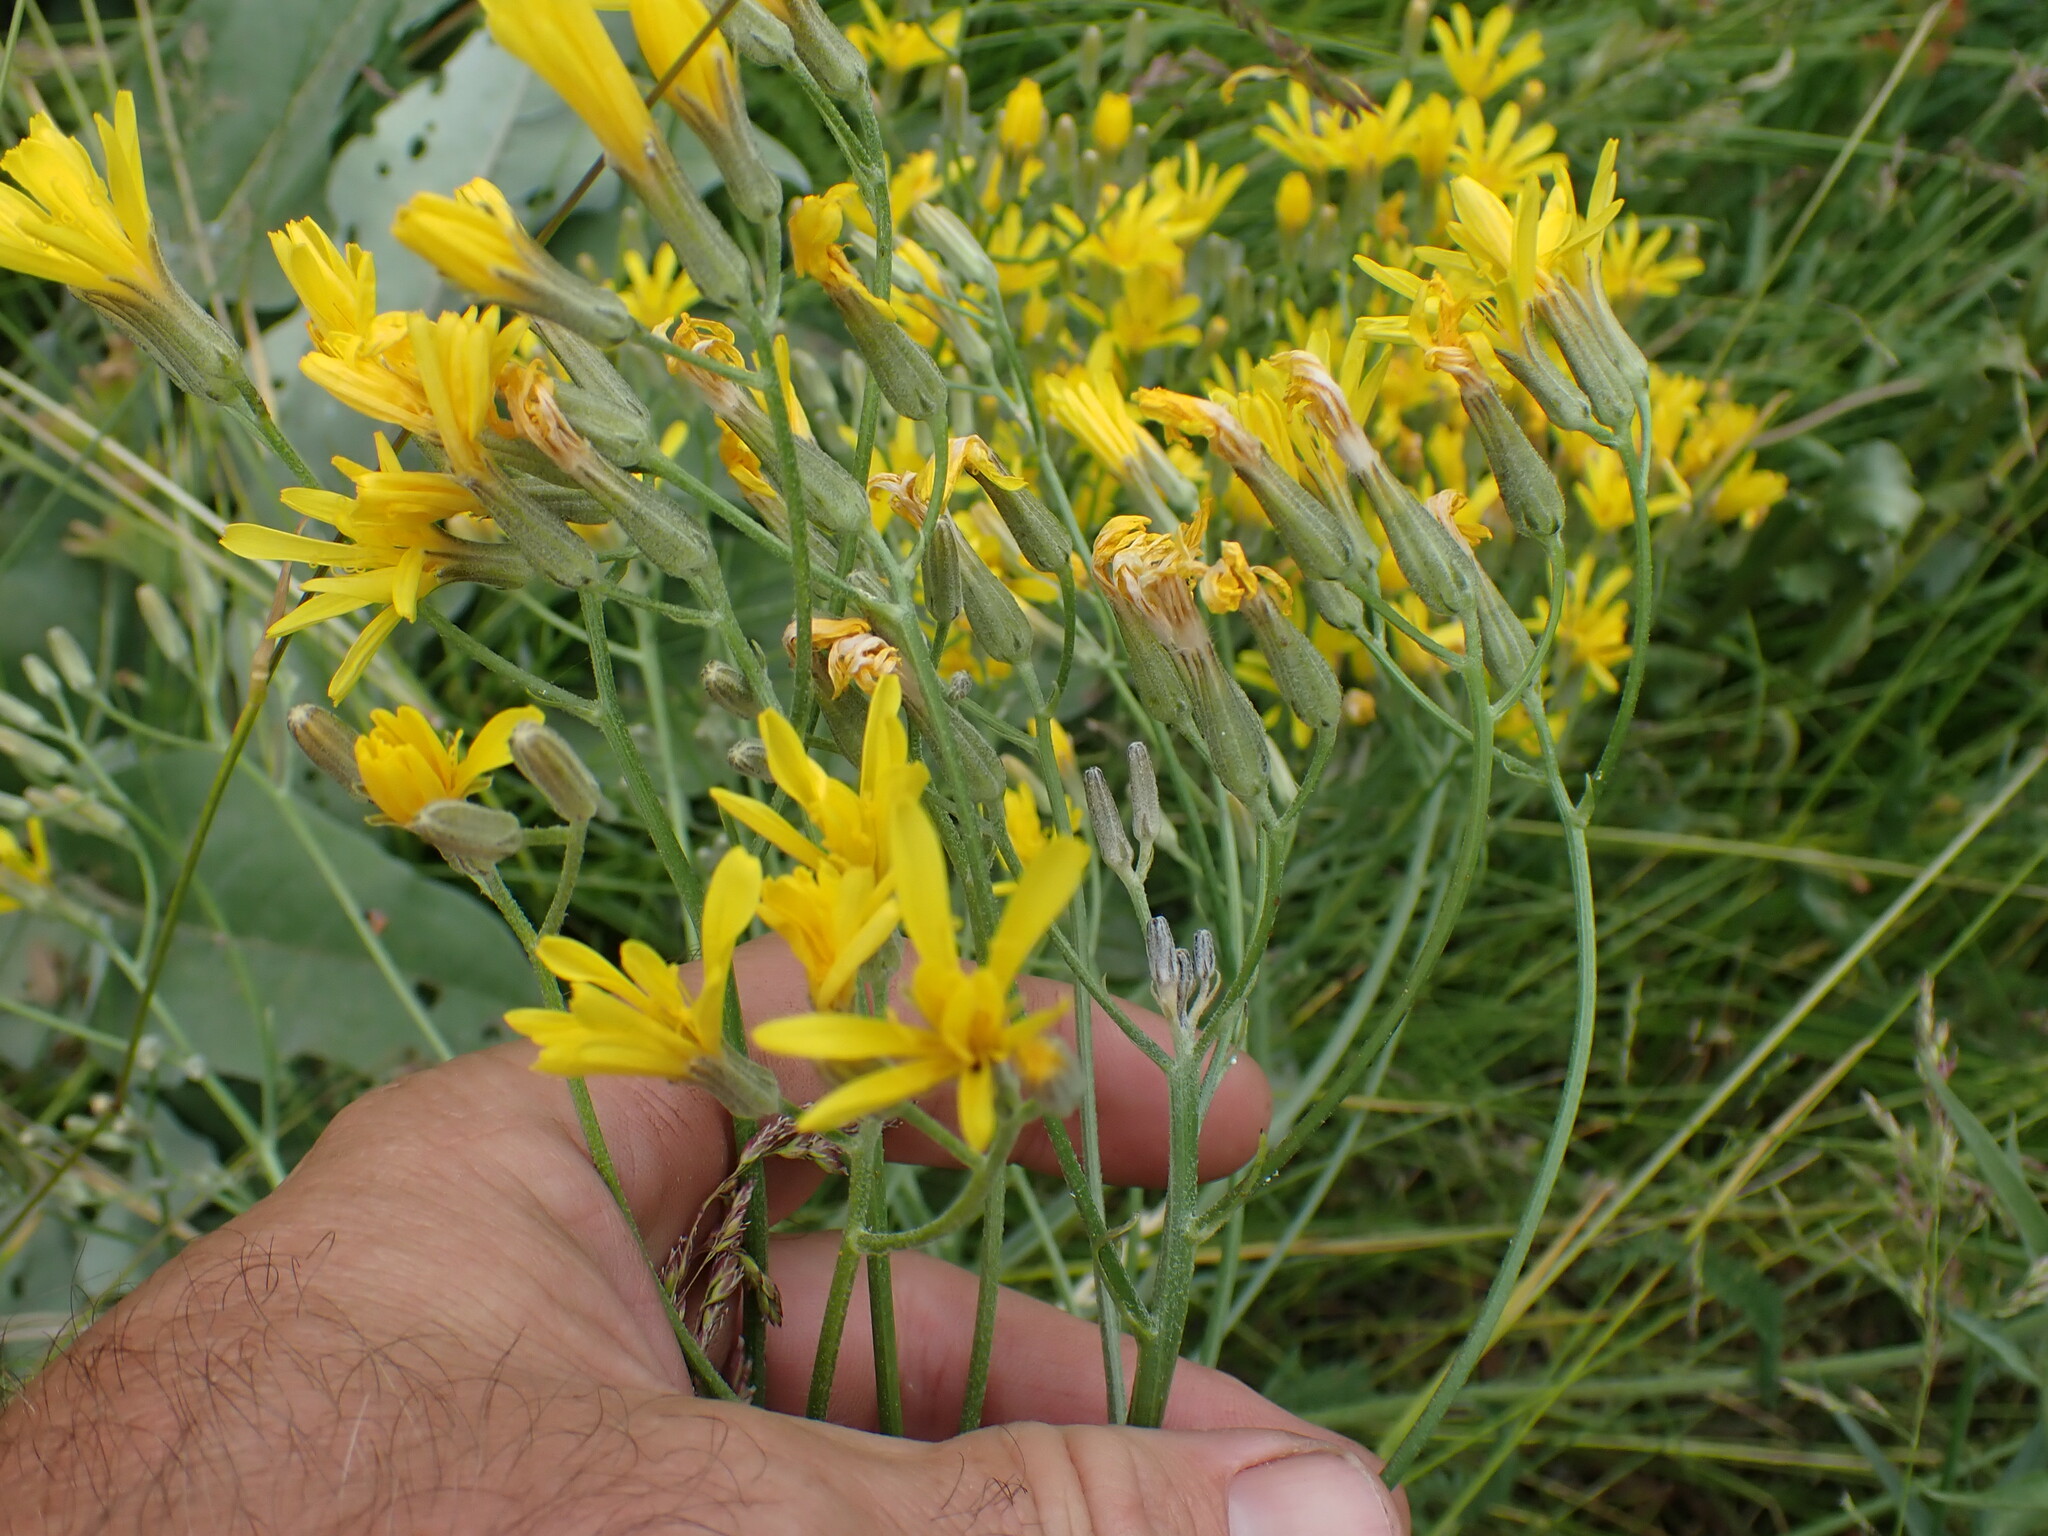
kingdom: Plantae
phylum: Tracheophyta
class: Magnoliopsida
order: Asterales
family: Asteraceae
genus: Crepis
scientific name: Crepis atribarba
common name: Dark hawk's-beard
